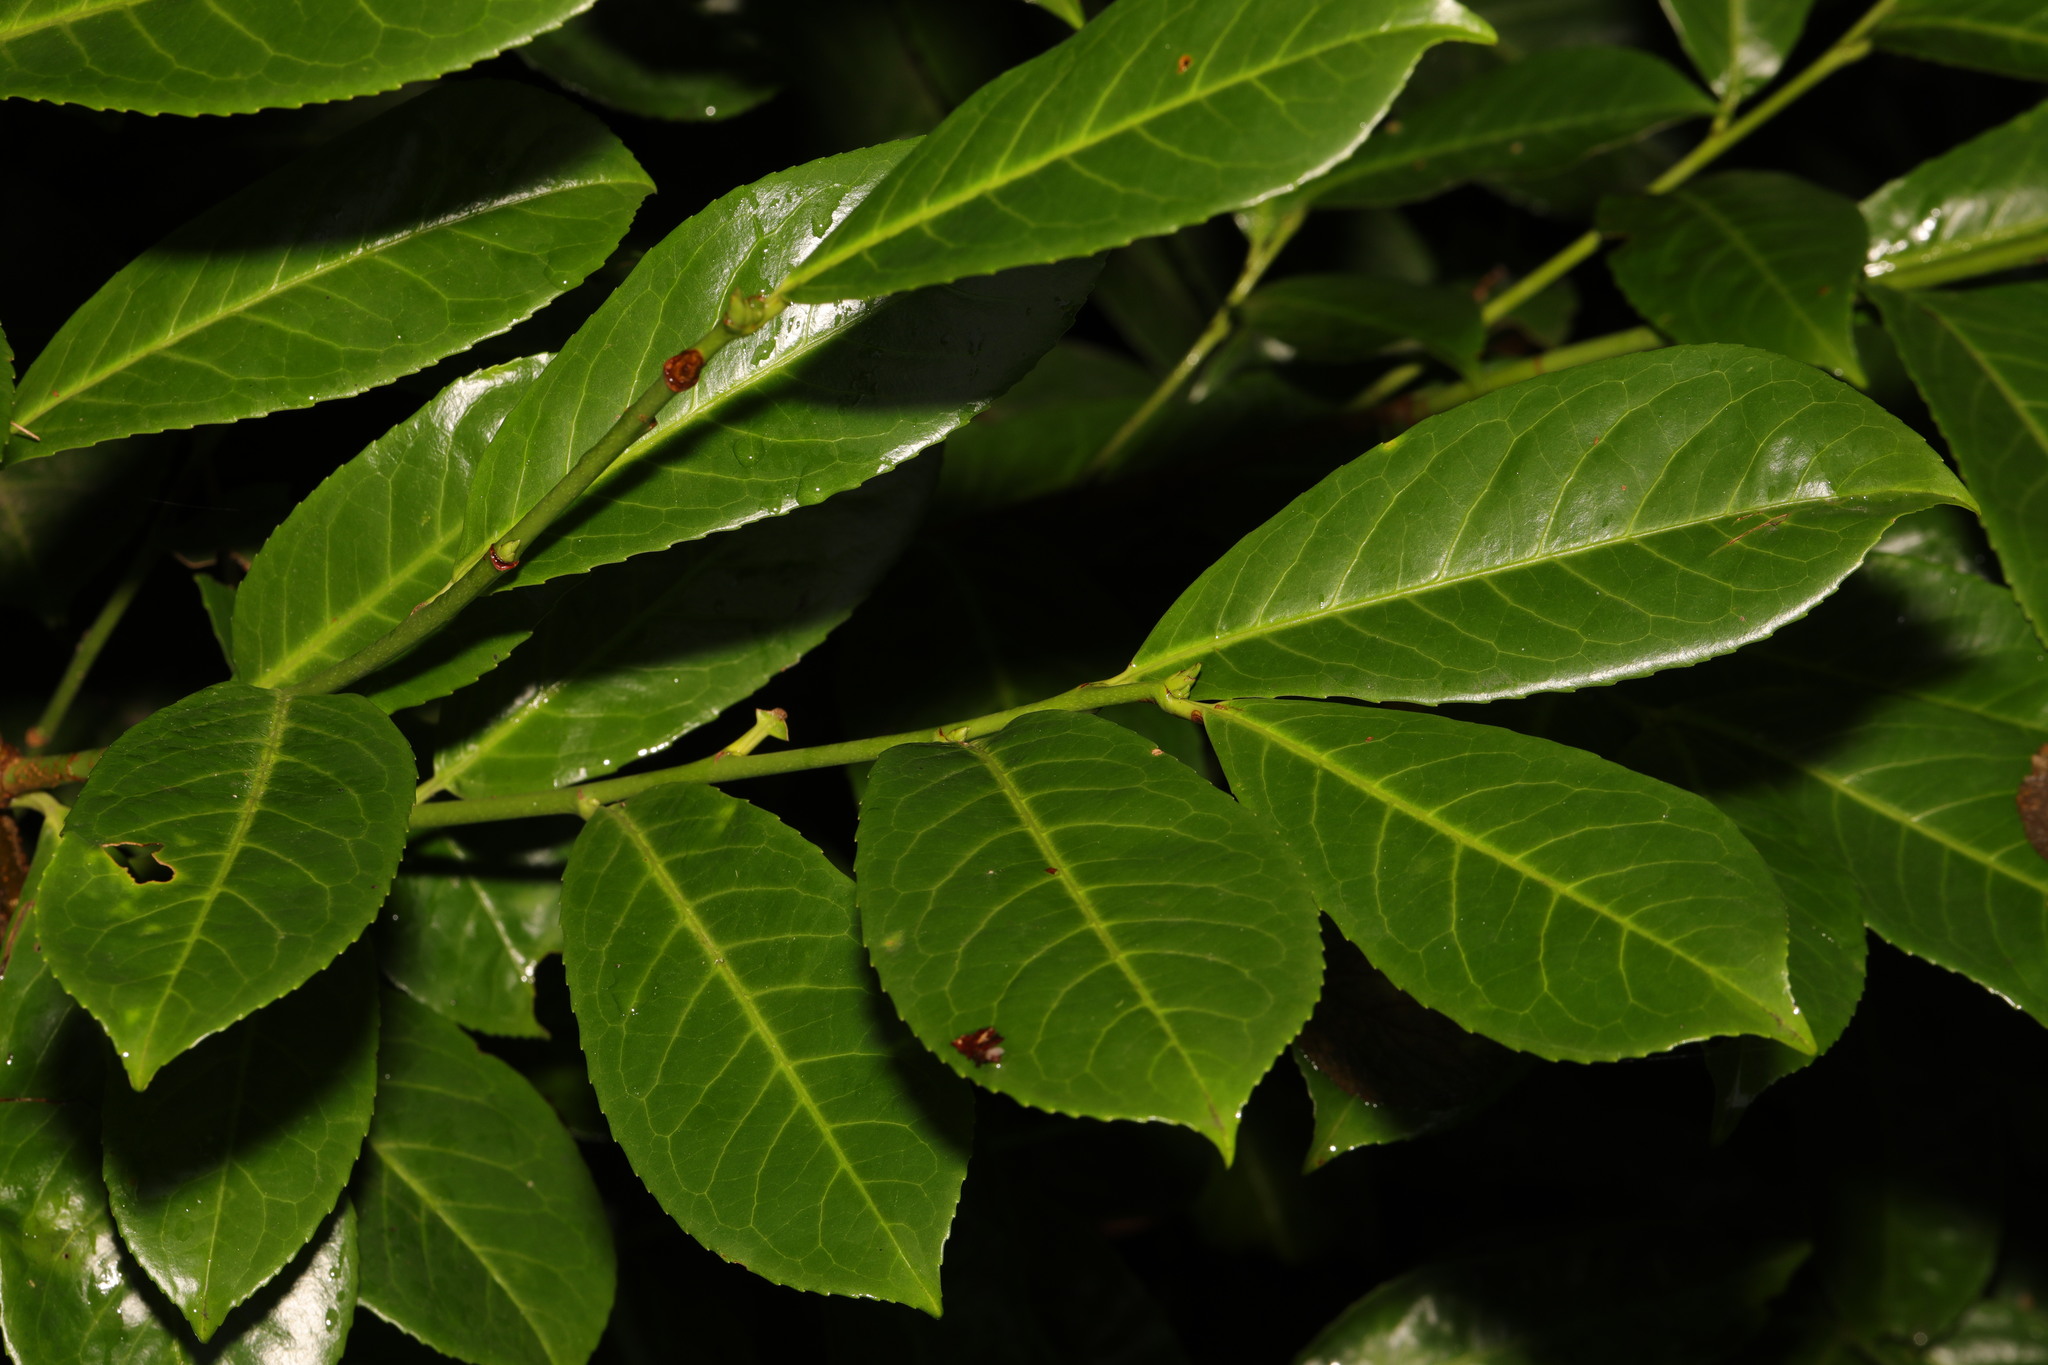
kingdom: Plantae
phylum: Tracheophyta
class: Magnoliopsida
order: Rosales
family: Rosaceae
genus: Prunus
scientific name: Prunus laurocerasus
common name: Cherry laurel
